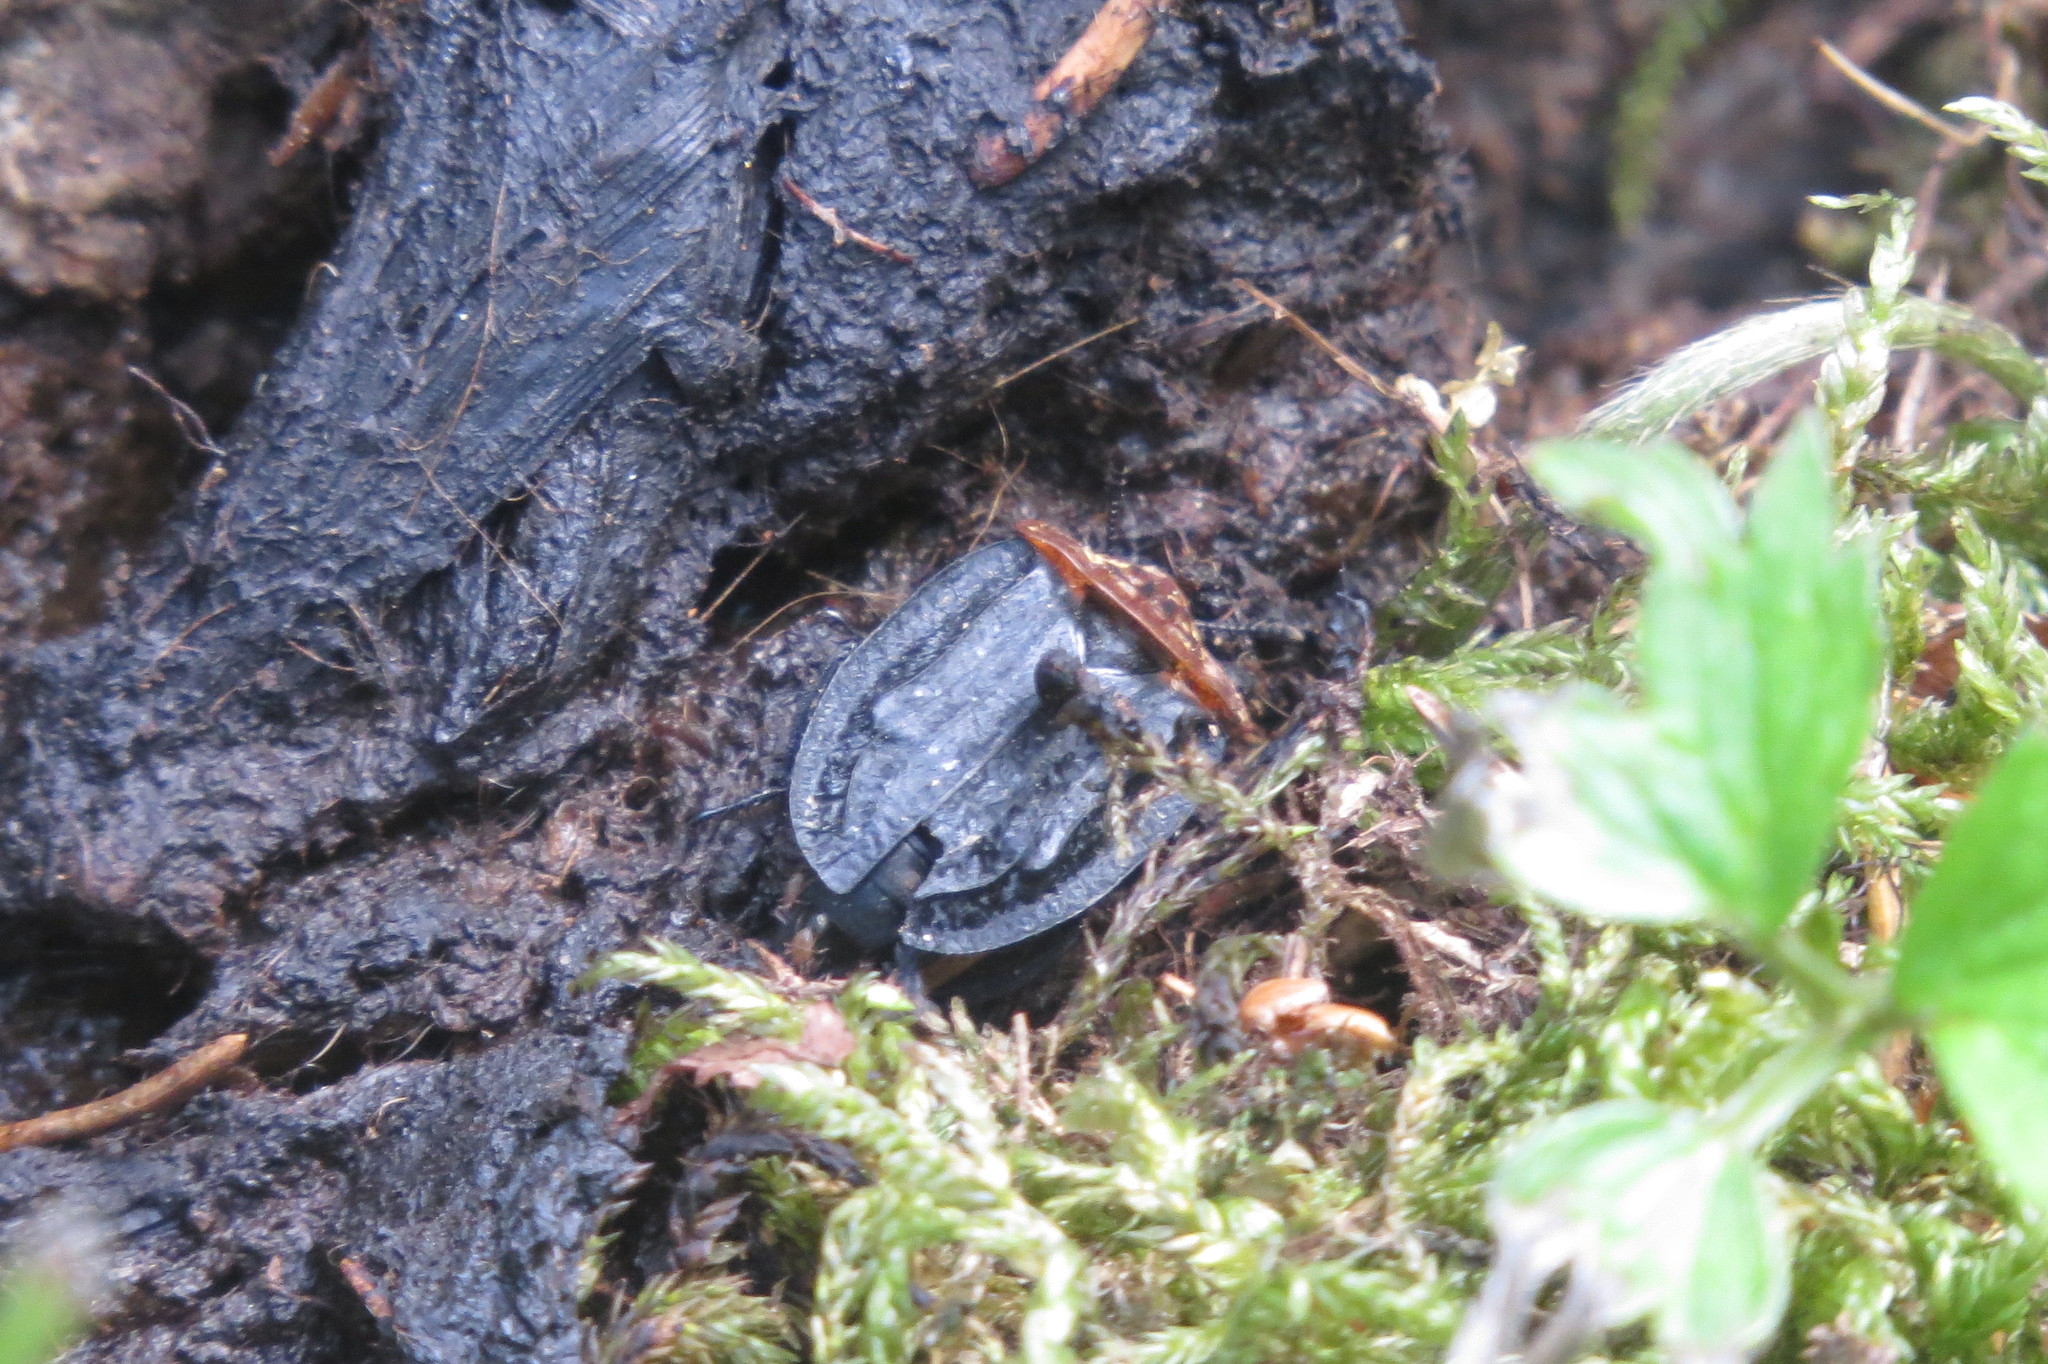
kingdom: Animalia
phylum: Arthropoda
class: Insecta
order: Coleoptera
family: Staphylinidae
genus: Oiceoptoma
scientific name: Oiceoptoma thoracicum
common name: Red-breasted carrion beetle
